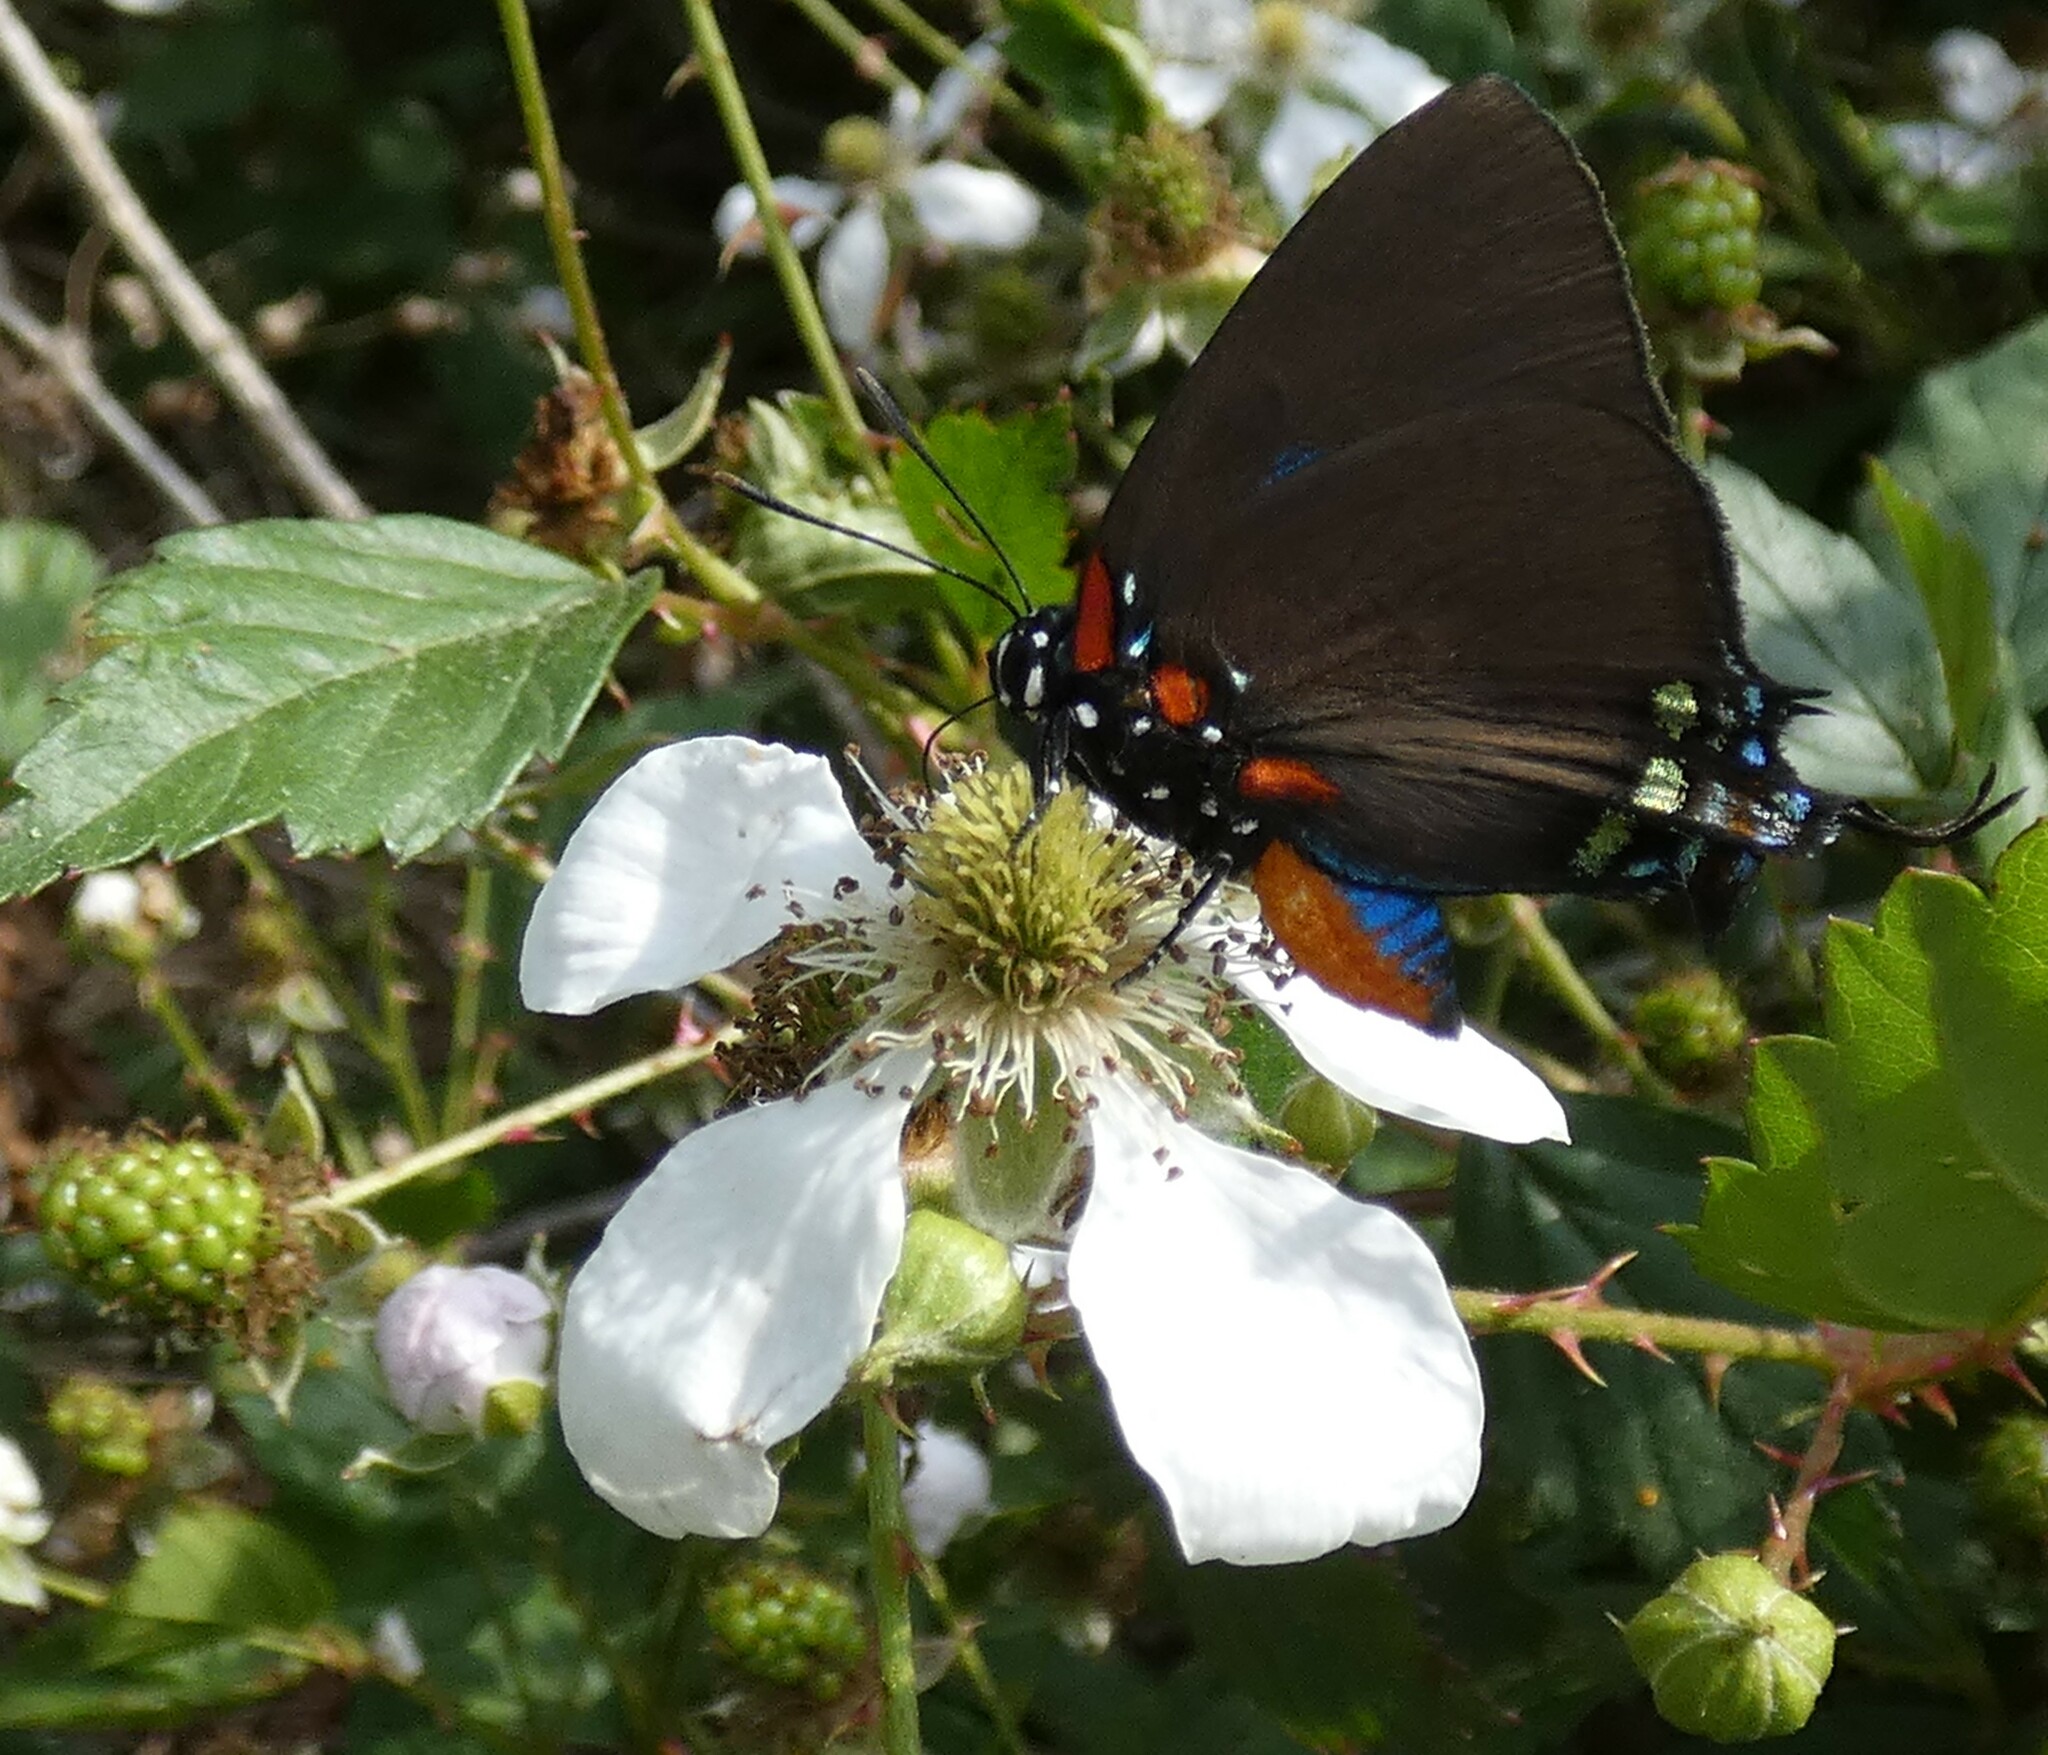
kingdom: Animalia
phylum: Arthropoda
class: Insecta
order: Lepidoptera
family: Lycaenidae
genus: Atlides
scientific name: Atlides halesus
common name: Great purple hairstreak
